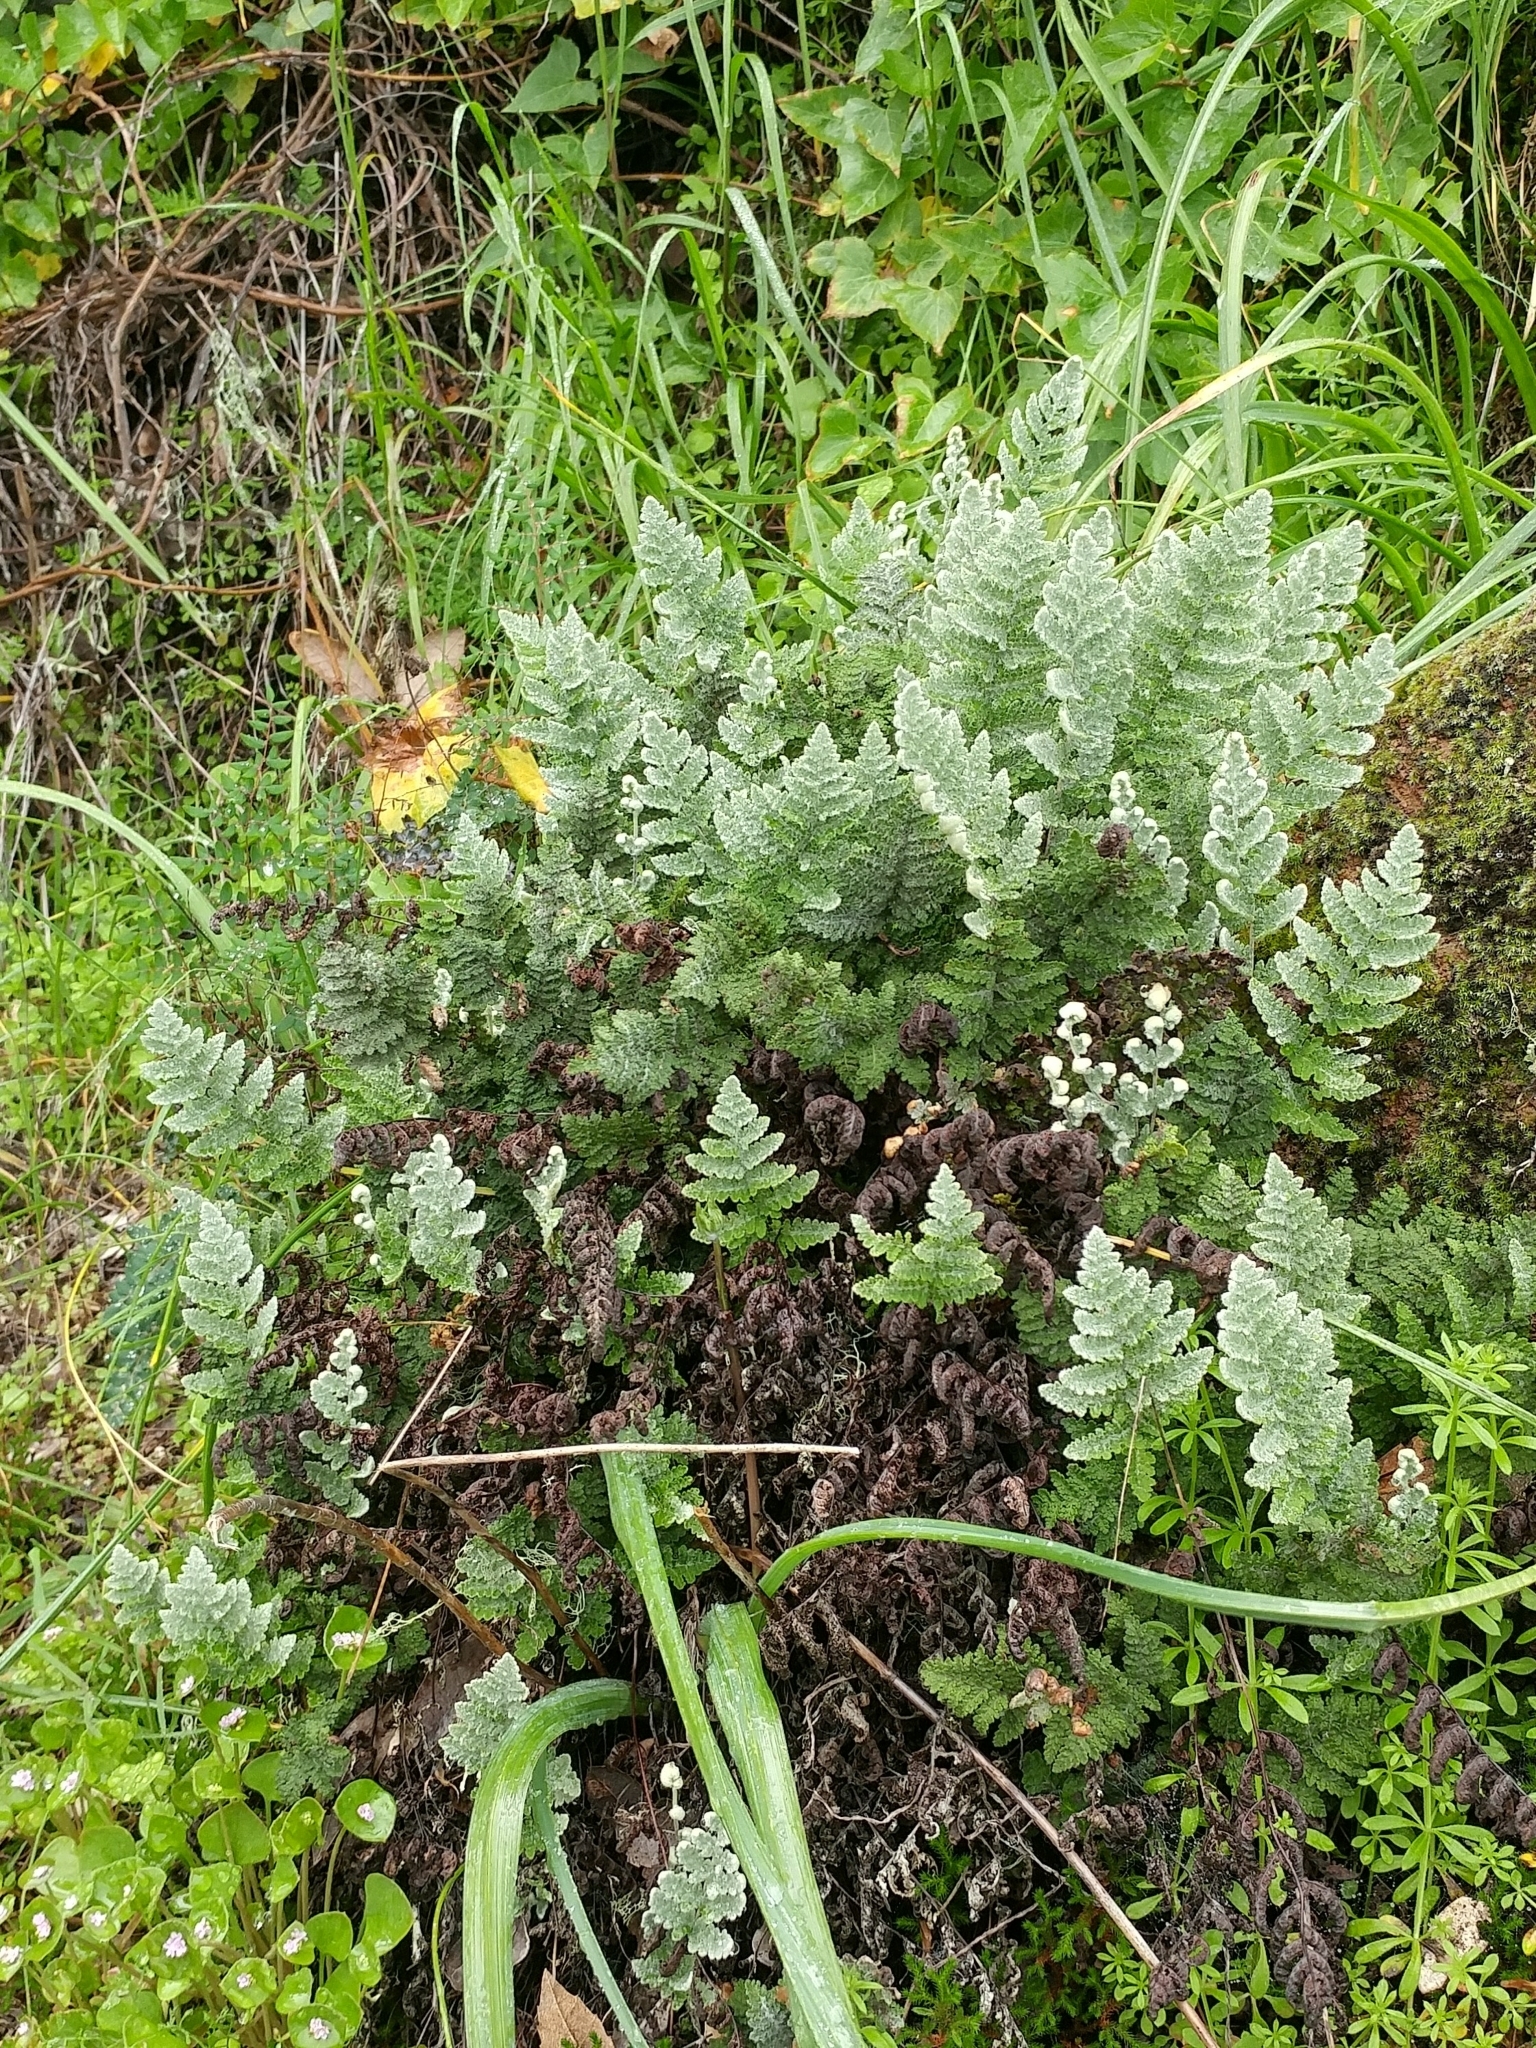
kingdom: Plantae
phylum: Tracheophyta
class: Polypodiopsida
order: Polypodiales
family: Pteridaceae
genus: Myriopteris
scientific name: Myriopteris newberryi
